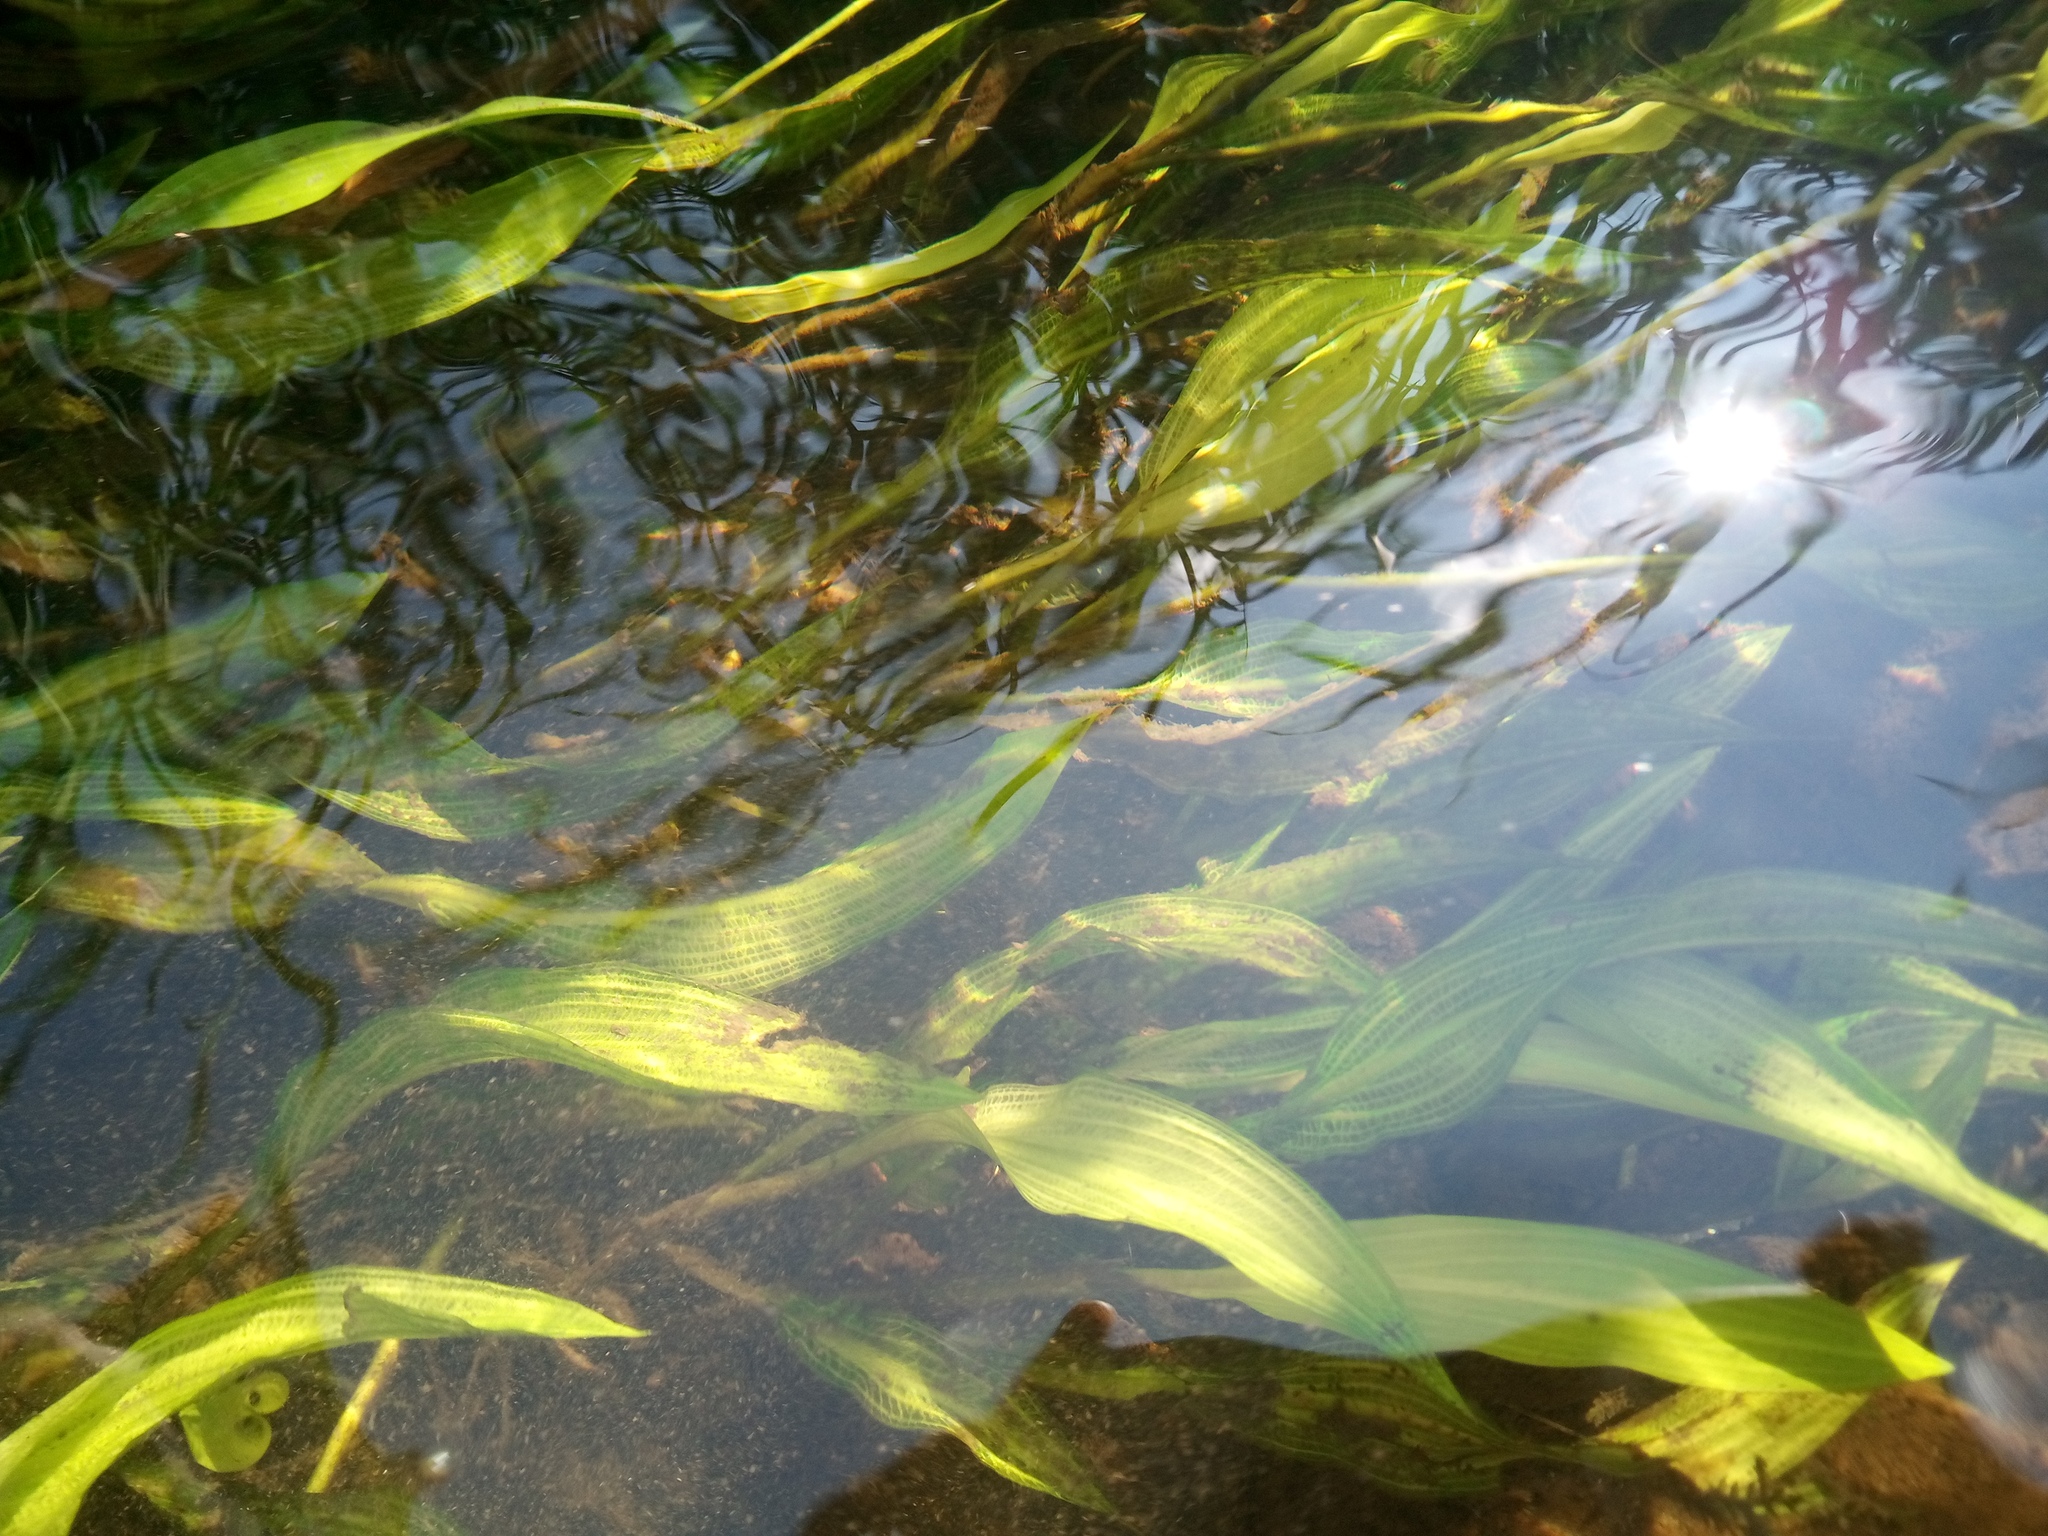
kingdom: Plantae
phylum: Tracheophyta
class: Liliopsida
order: Alismatales
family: Potamogetonaceae
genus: Potamogeton
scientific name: Potamogeton nodosus
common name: Loddon pondweed
